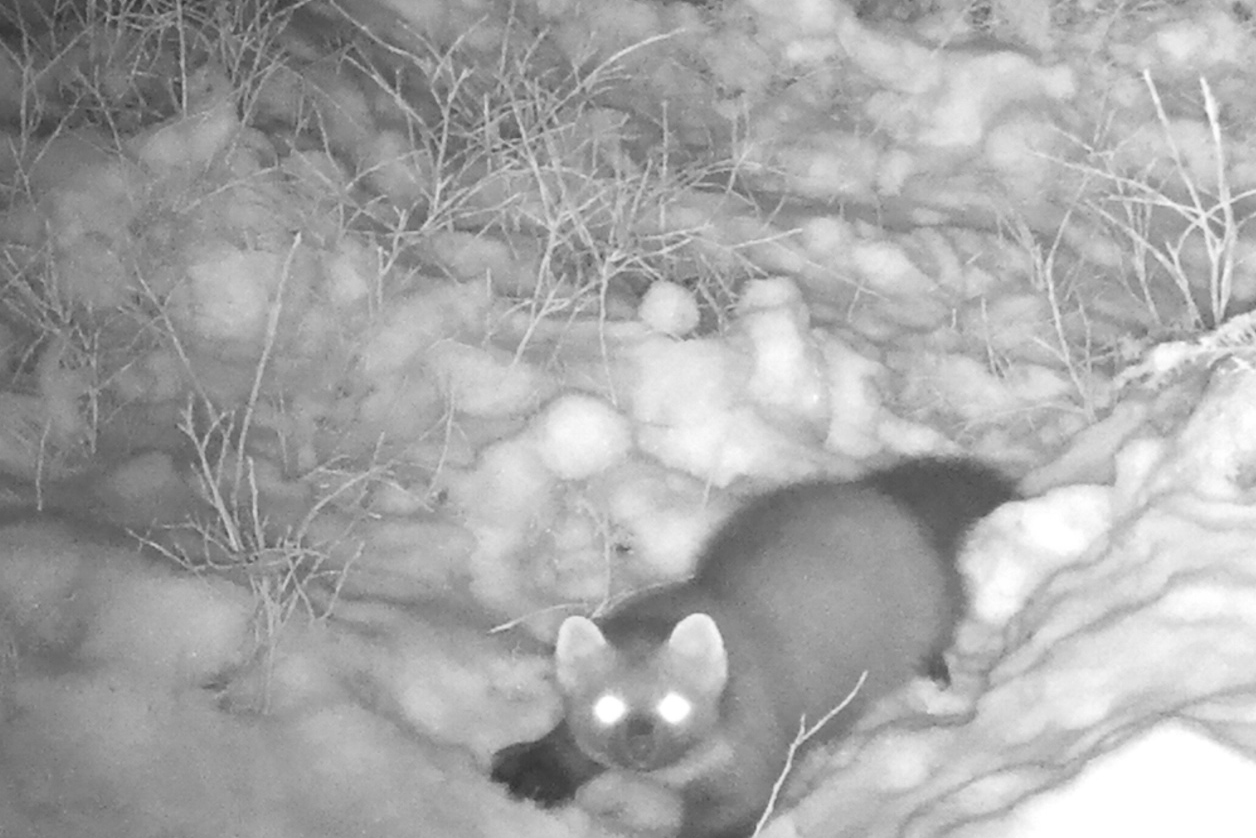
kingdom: Animalia
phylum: Chordata
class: Mammalia
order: Carnivora
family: Mustelidae
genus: Martes
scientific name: Martes martes
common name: European pine marten
